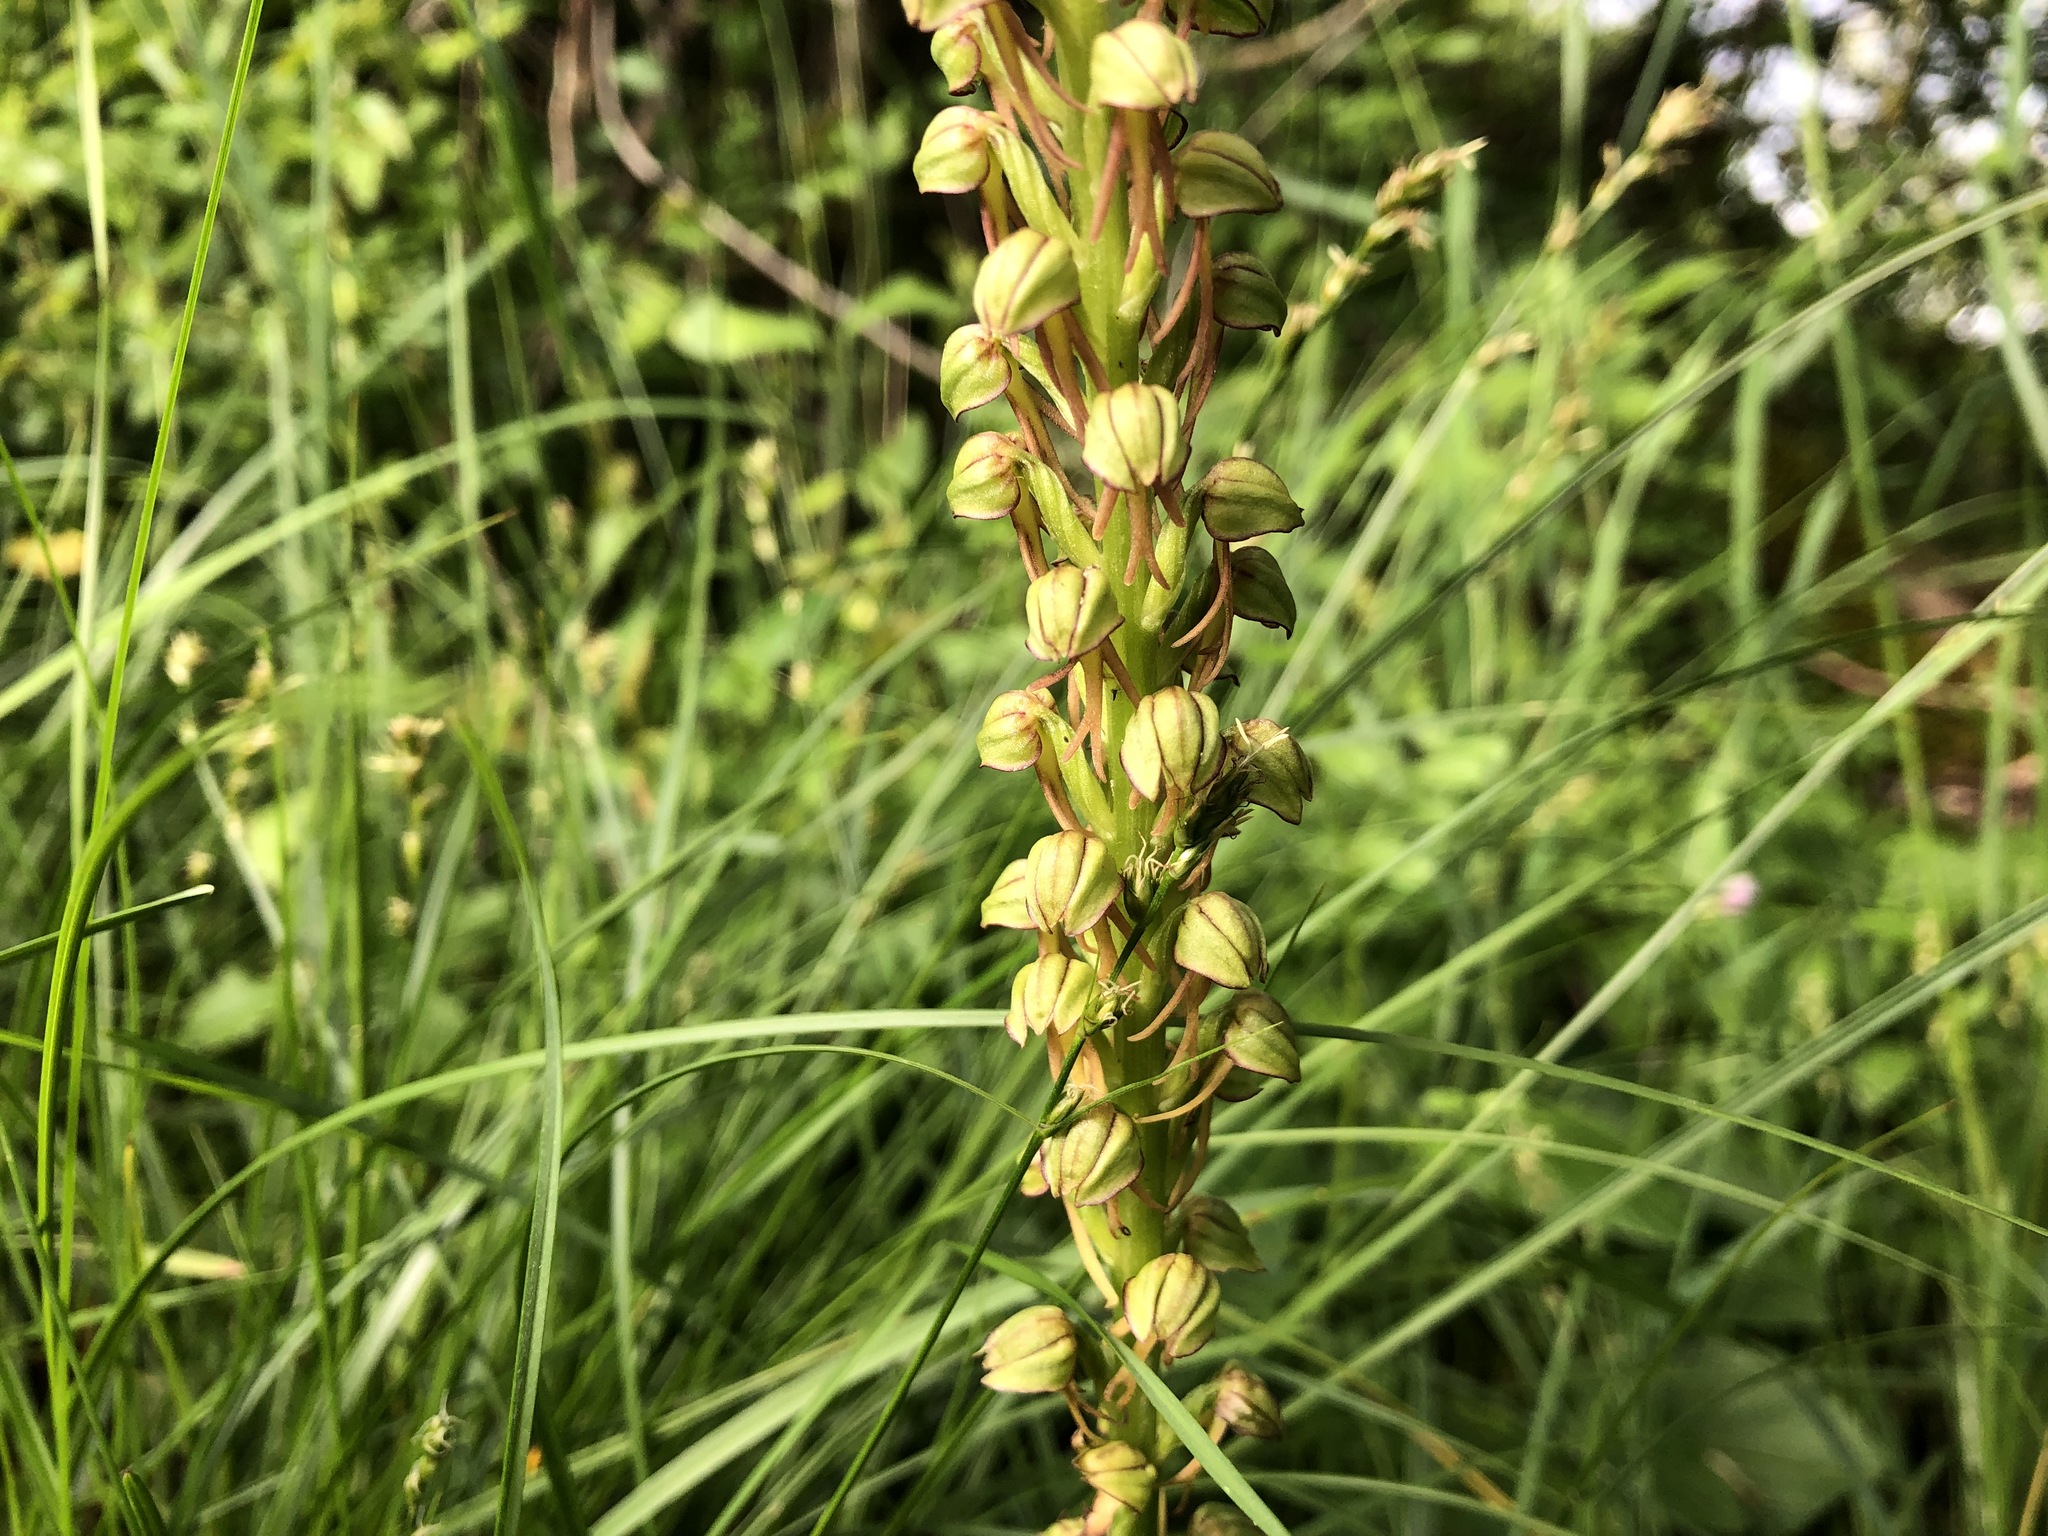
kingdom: Plantae
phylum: Tracheophyta
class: Liliopsida
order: Asparagales
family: Orchidaceae
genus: Orchis
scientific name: Orchis anthropophora
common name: Man orchid
